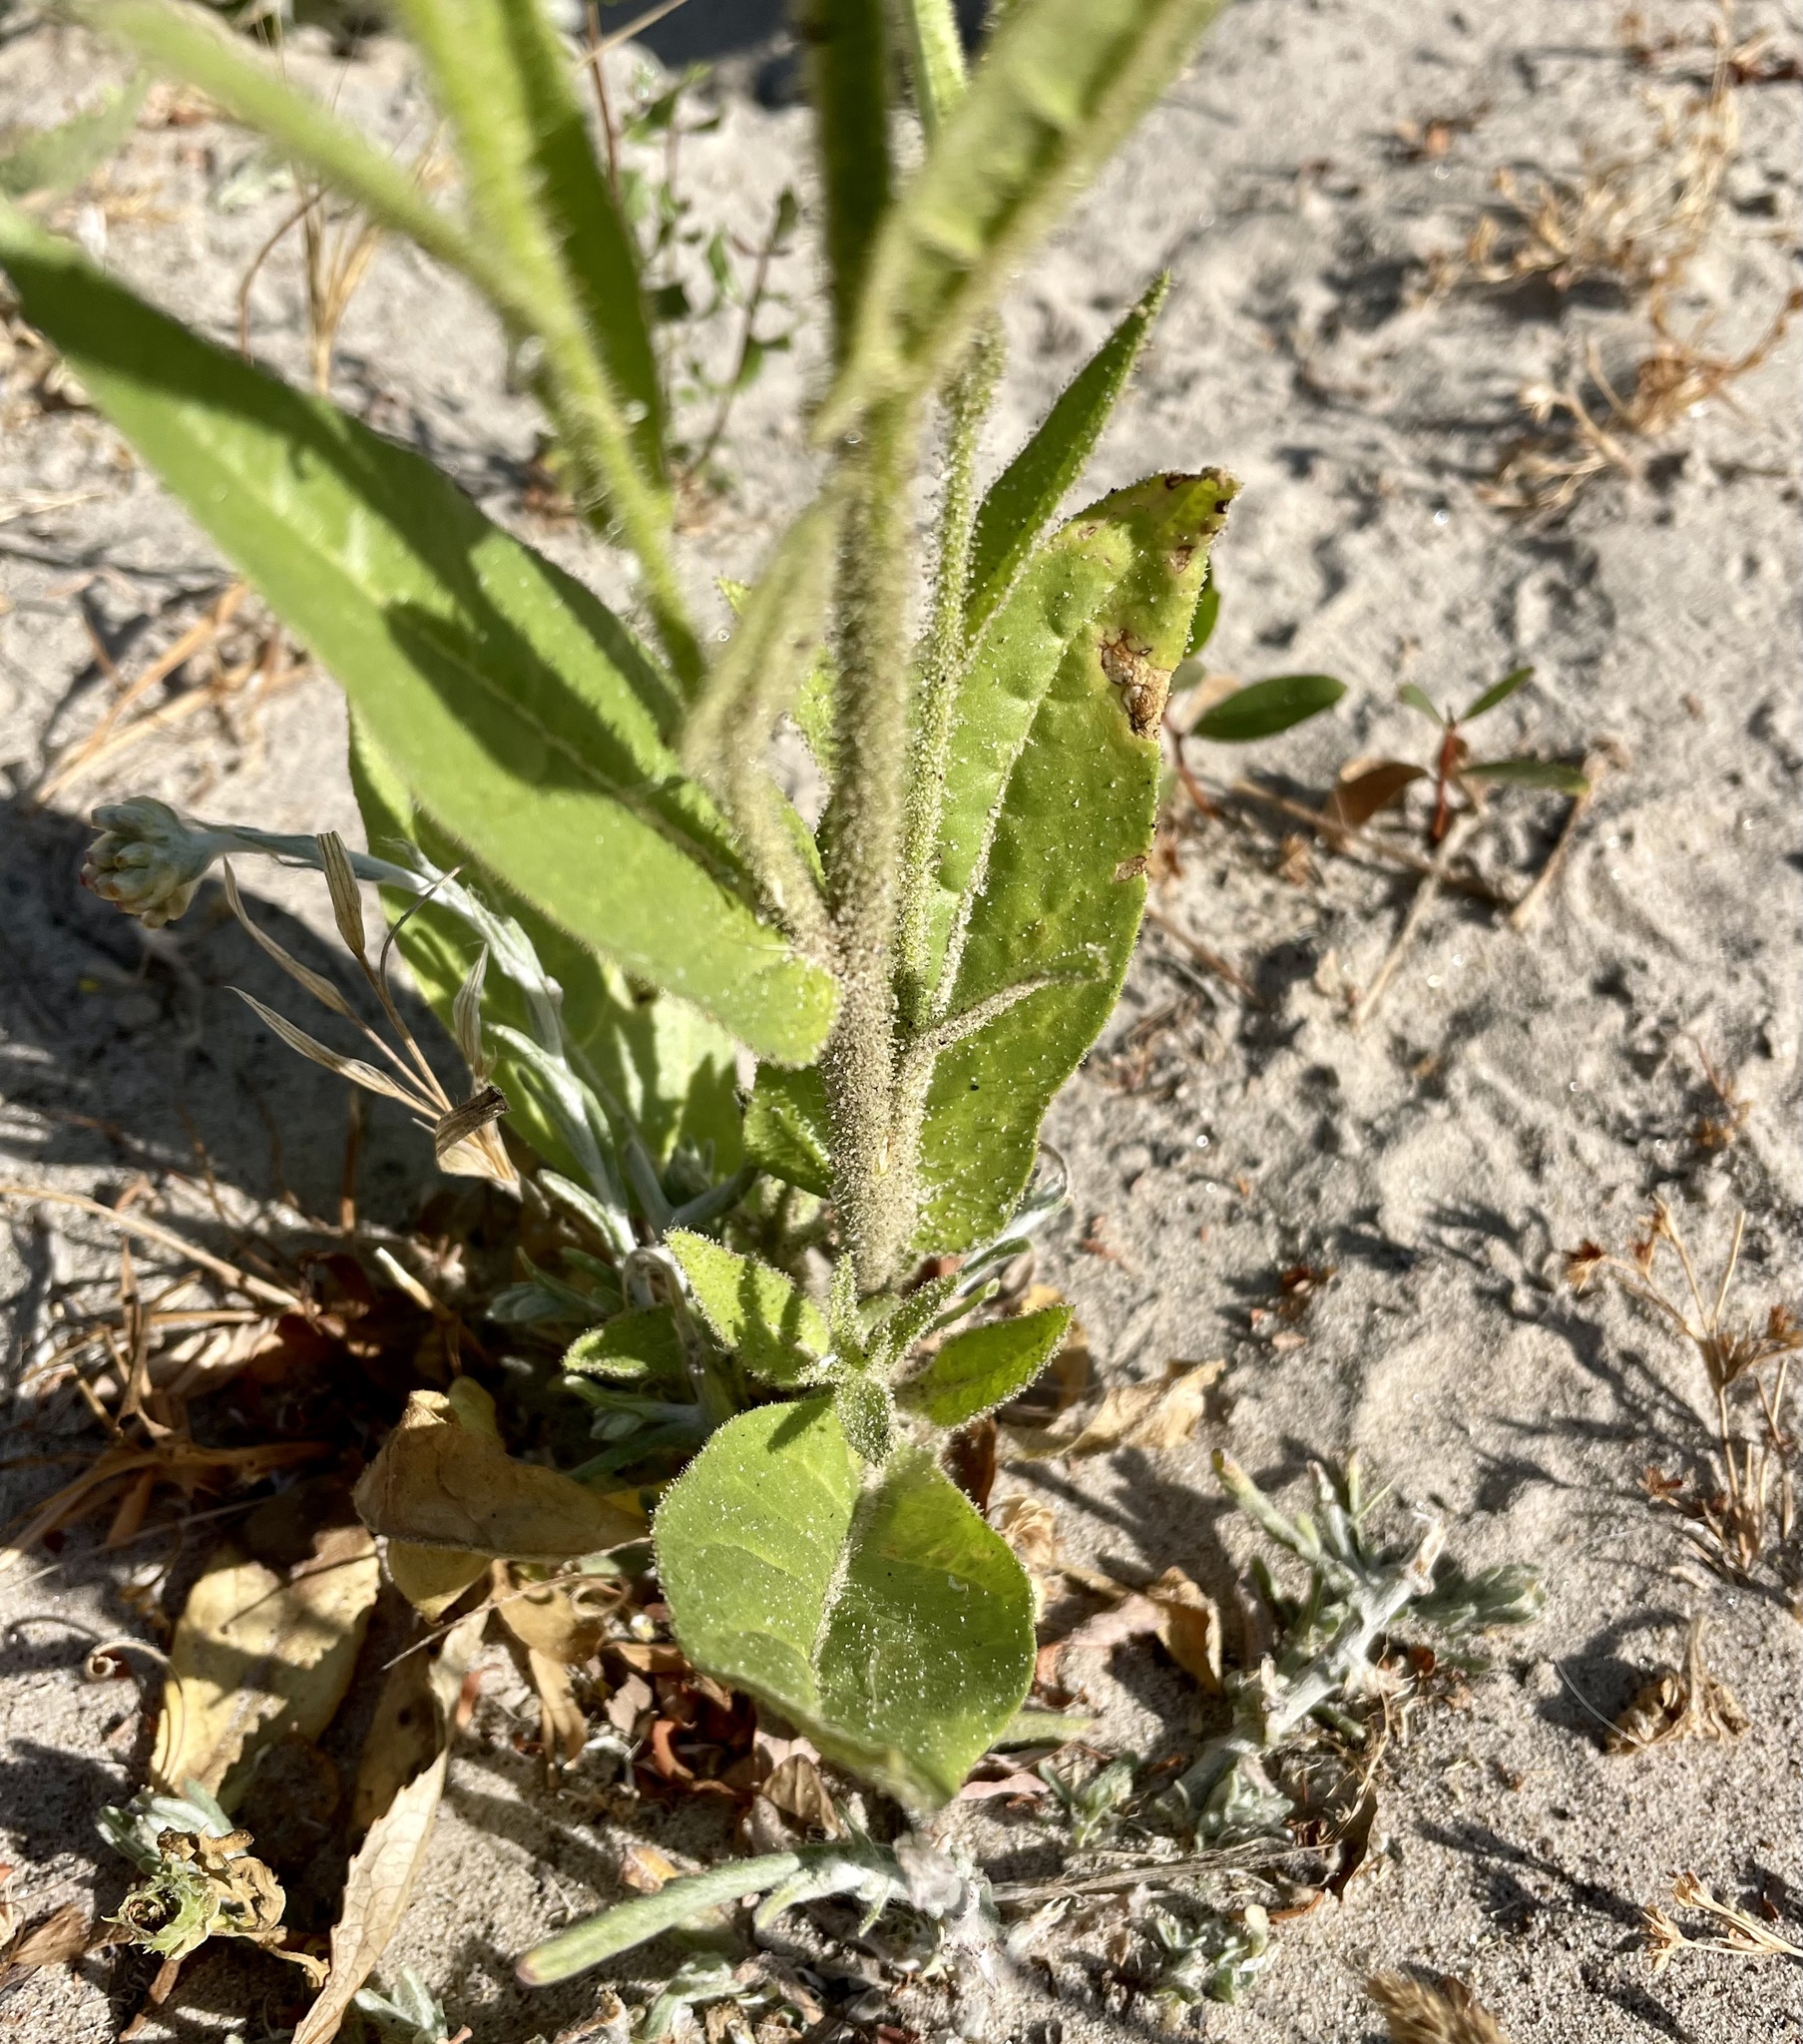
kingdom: Plantae
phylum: Tracheophyta
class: Magnoliopsida
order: Solanales
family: Solanaceae
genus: Nicotiana
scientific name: Nicotiana quadrivalvis
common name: Indian tobacco
